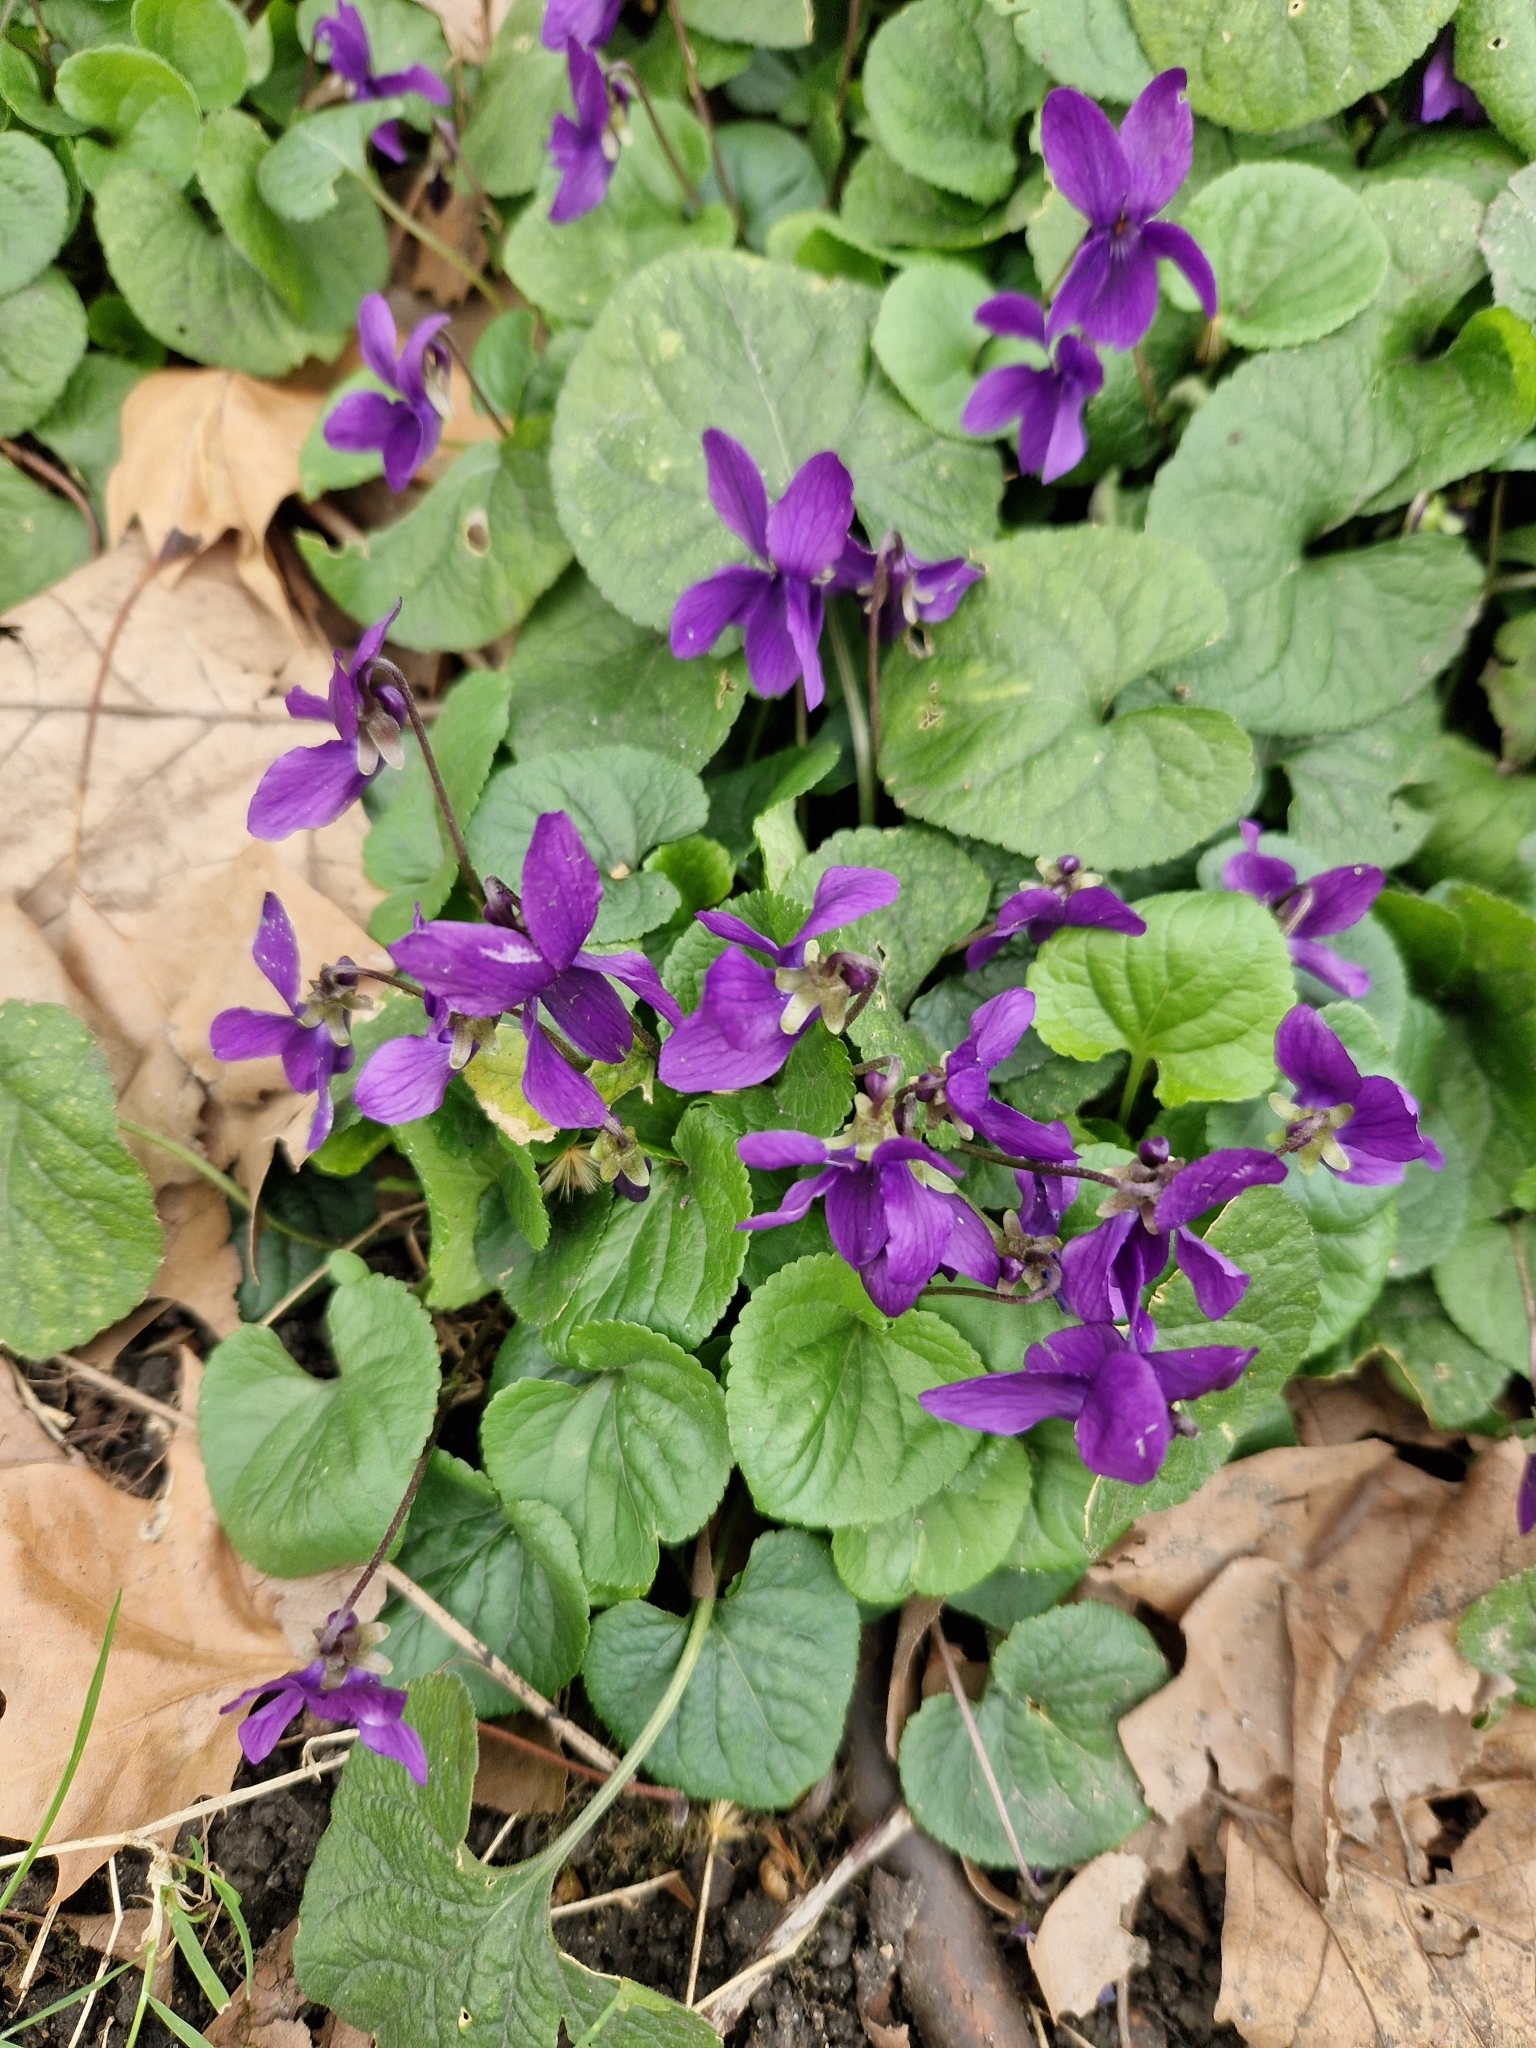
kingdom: Plantae
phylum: Tracheophyta
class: Magnoliopsida
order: Malpighiales
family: Violaceae
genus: Viola
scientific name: Viola odorata
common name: Sweet violet
